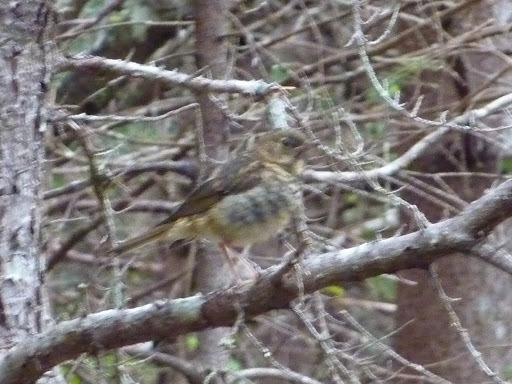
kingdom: Animalia
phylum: Chordata
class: Aves
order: Passeriformes
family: Turdidae
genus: Catharus
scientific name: Catharus
